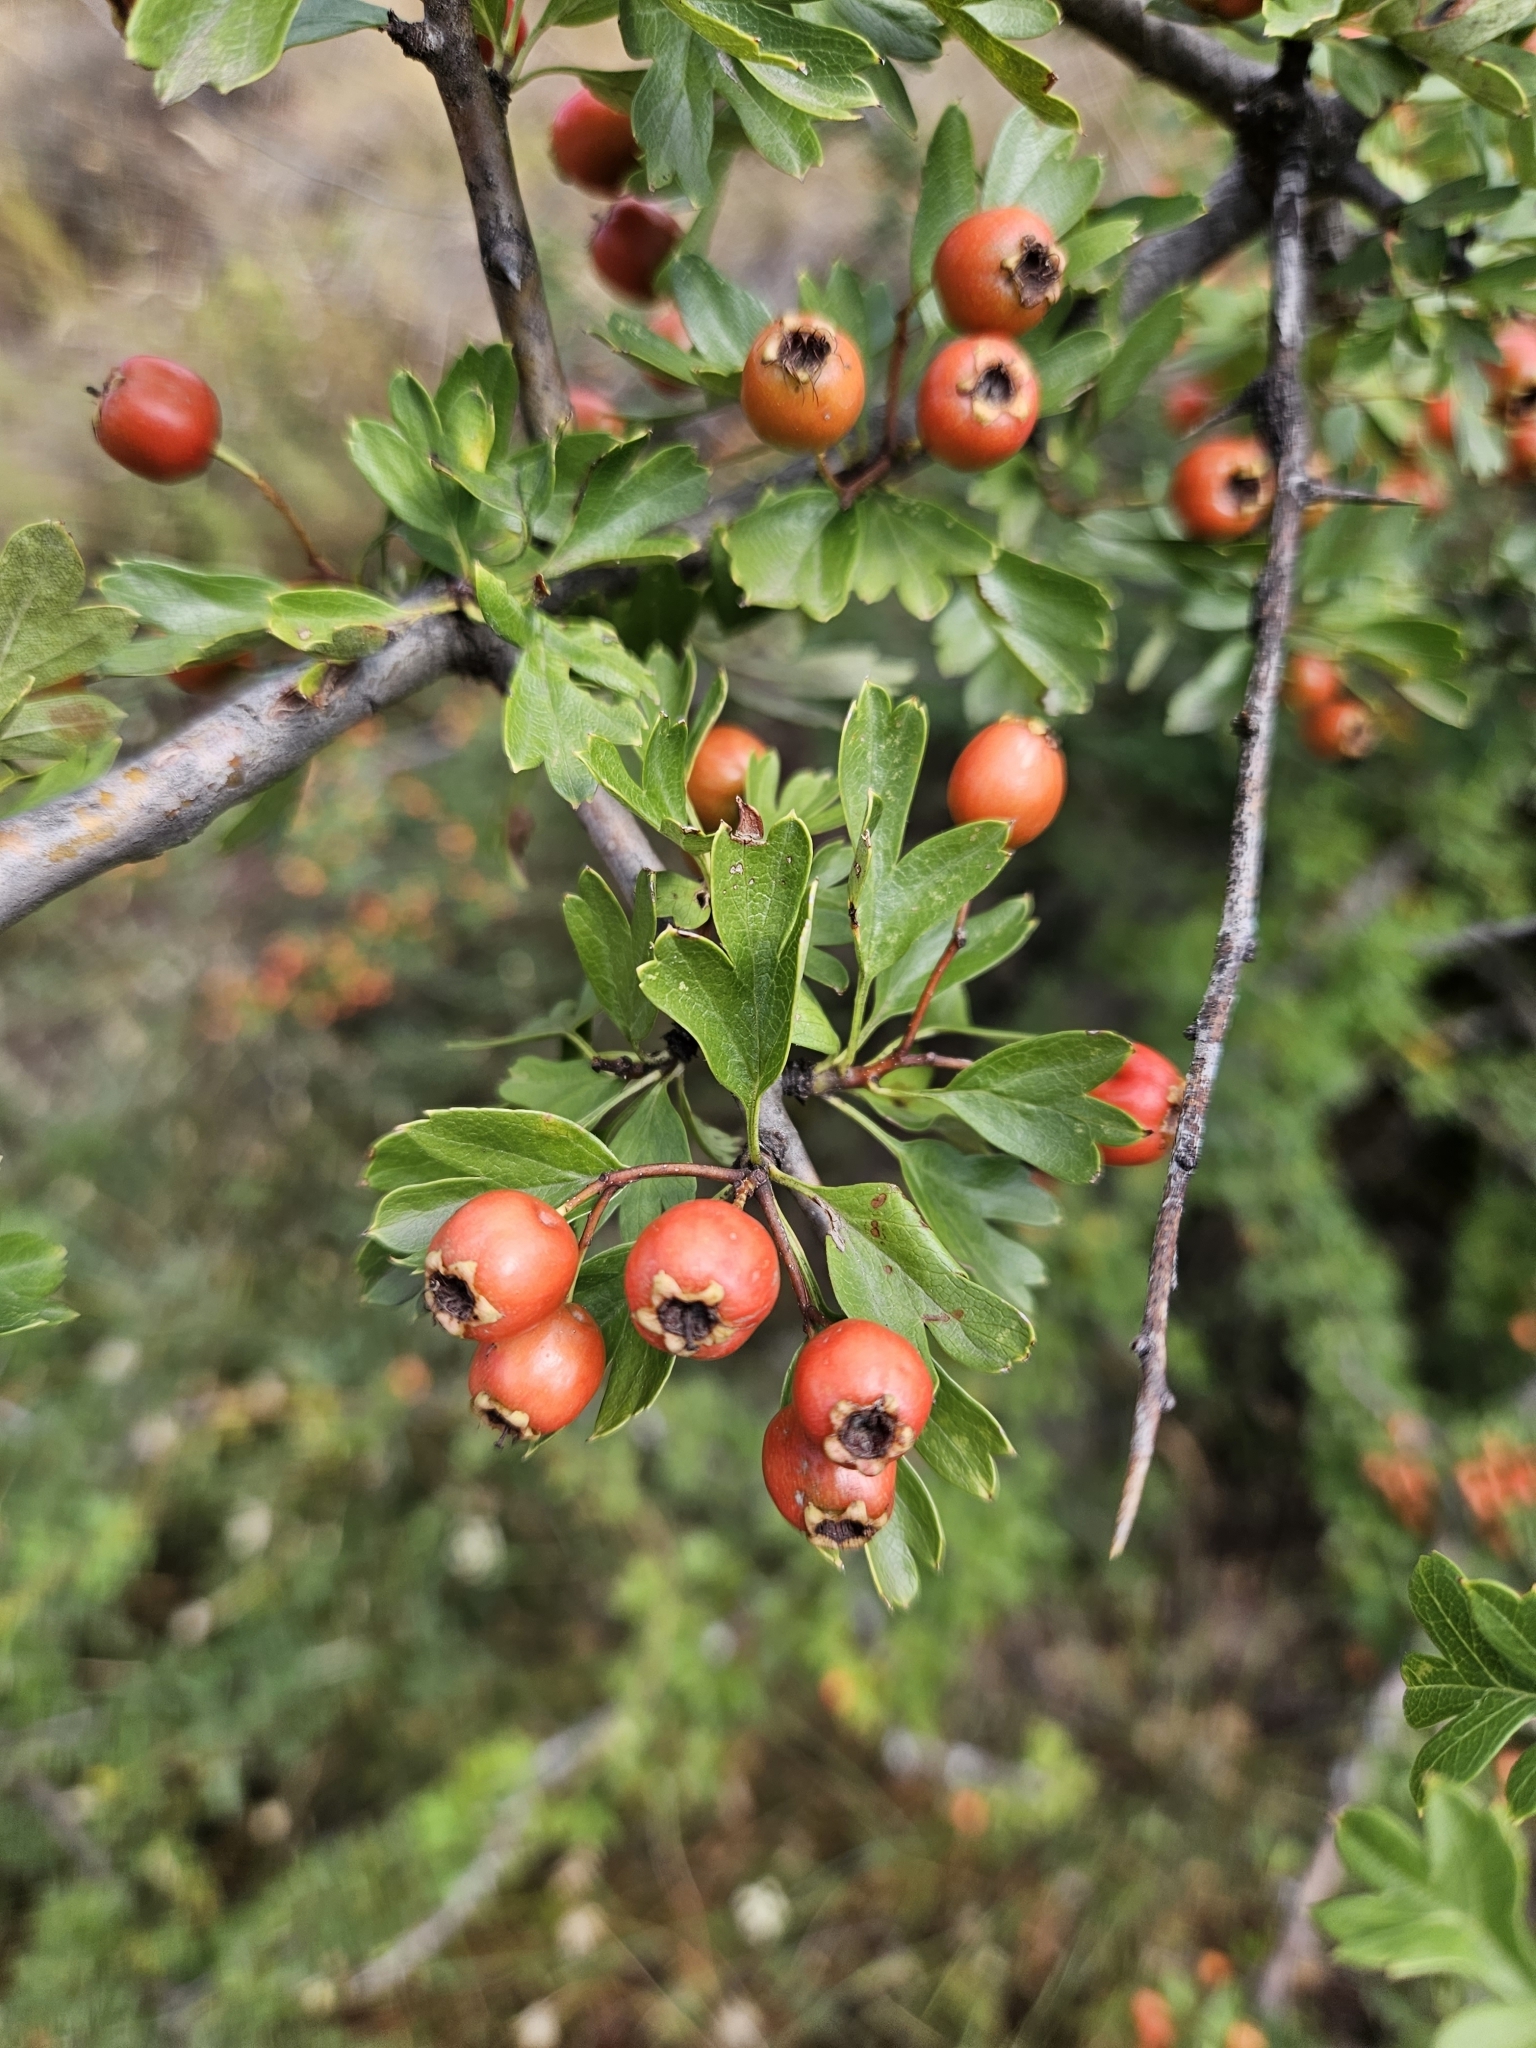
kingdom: Plantae
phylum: Tracheophyta
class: Magnoliopsida
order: Rosales
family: Rosaceae
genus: Crataegus
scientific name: Crataegus monogyna
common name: Hawthorn
